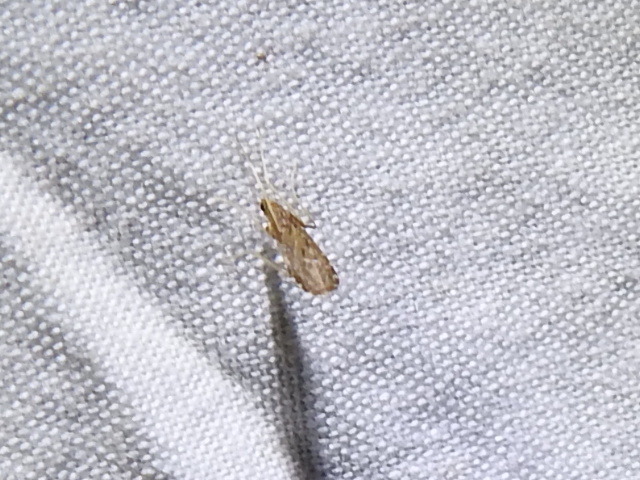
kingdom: Animalia
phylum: Arthropoda
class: Insecta
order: Diptera
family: Limoniidae
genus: Erioptera
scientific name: Erioptera tantilla
